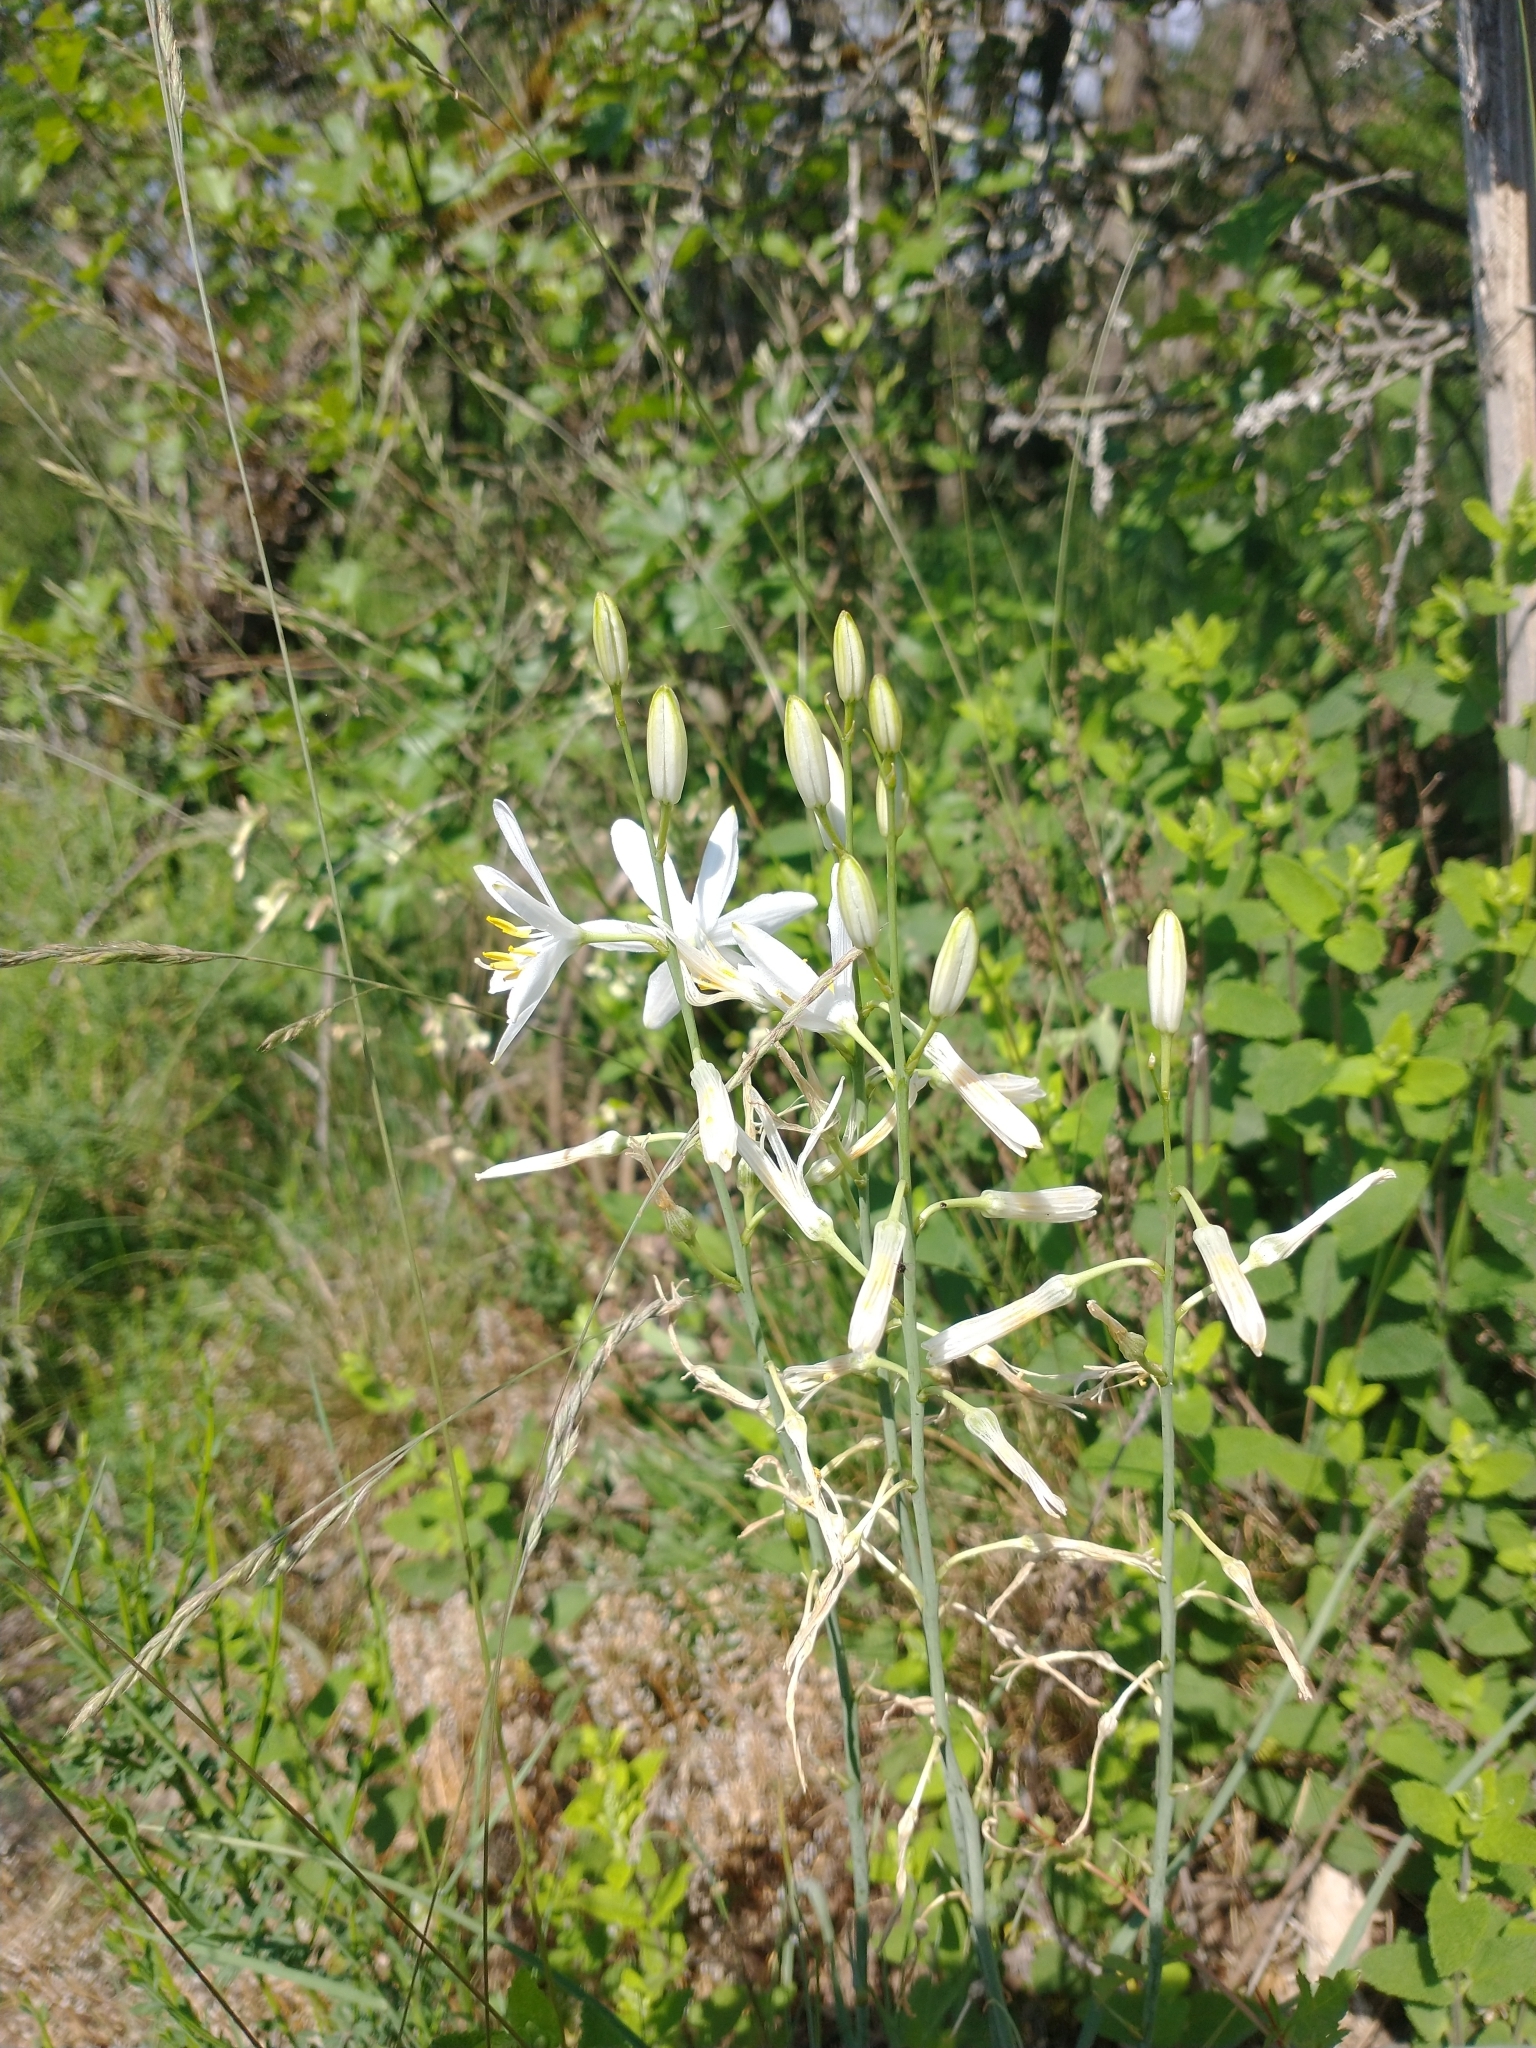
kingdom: Plantae
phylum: Tracheophyta
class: Liliopsida
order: Asparagales
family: Asparagaceae
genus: Anthericum
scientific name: Anthericum liliago
